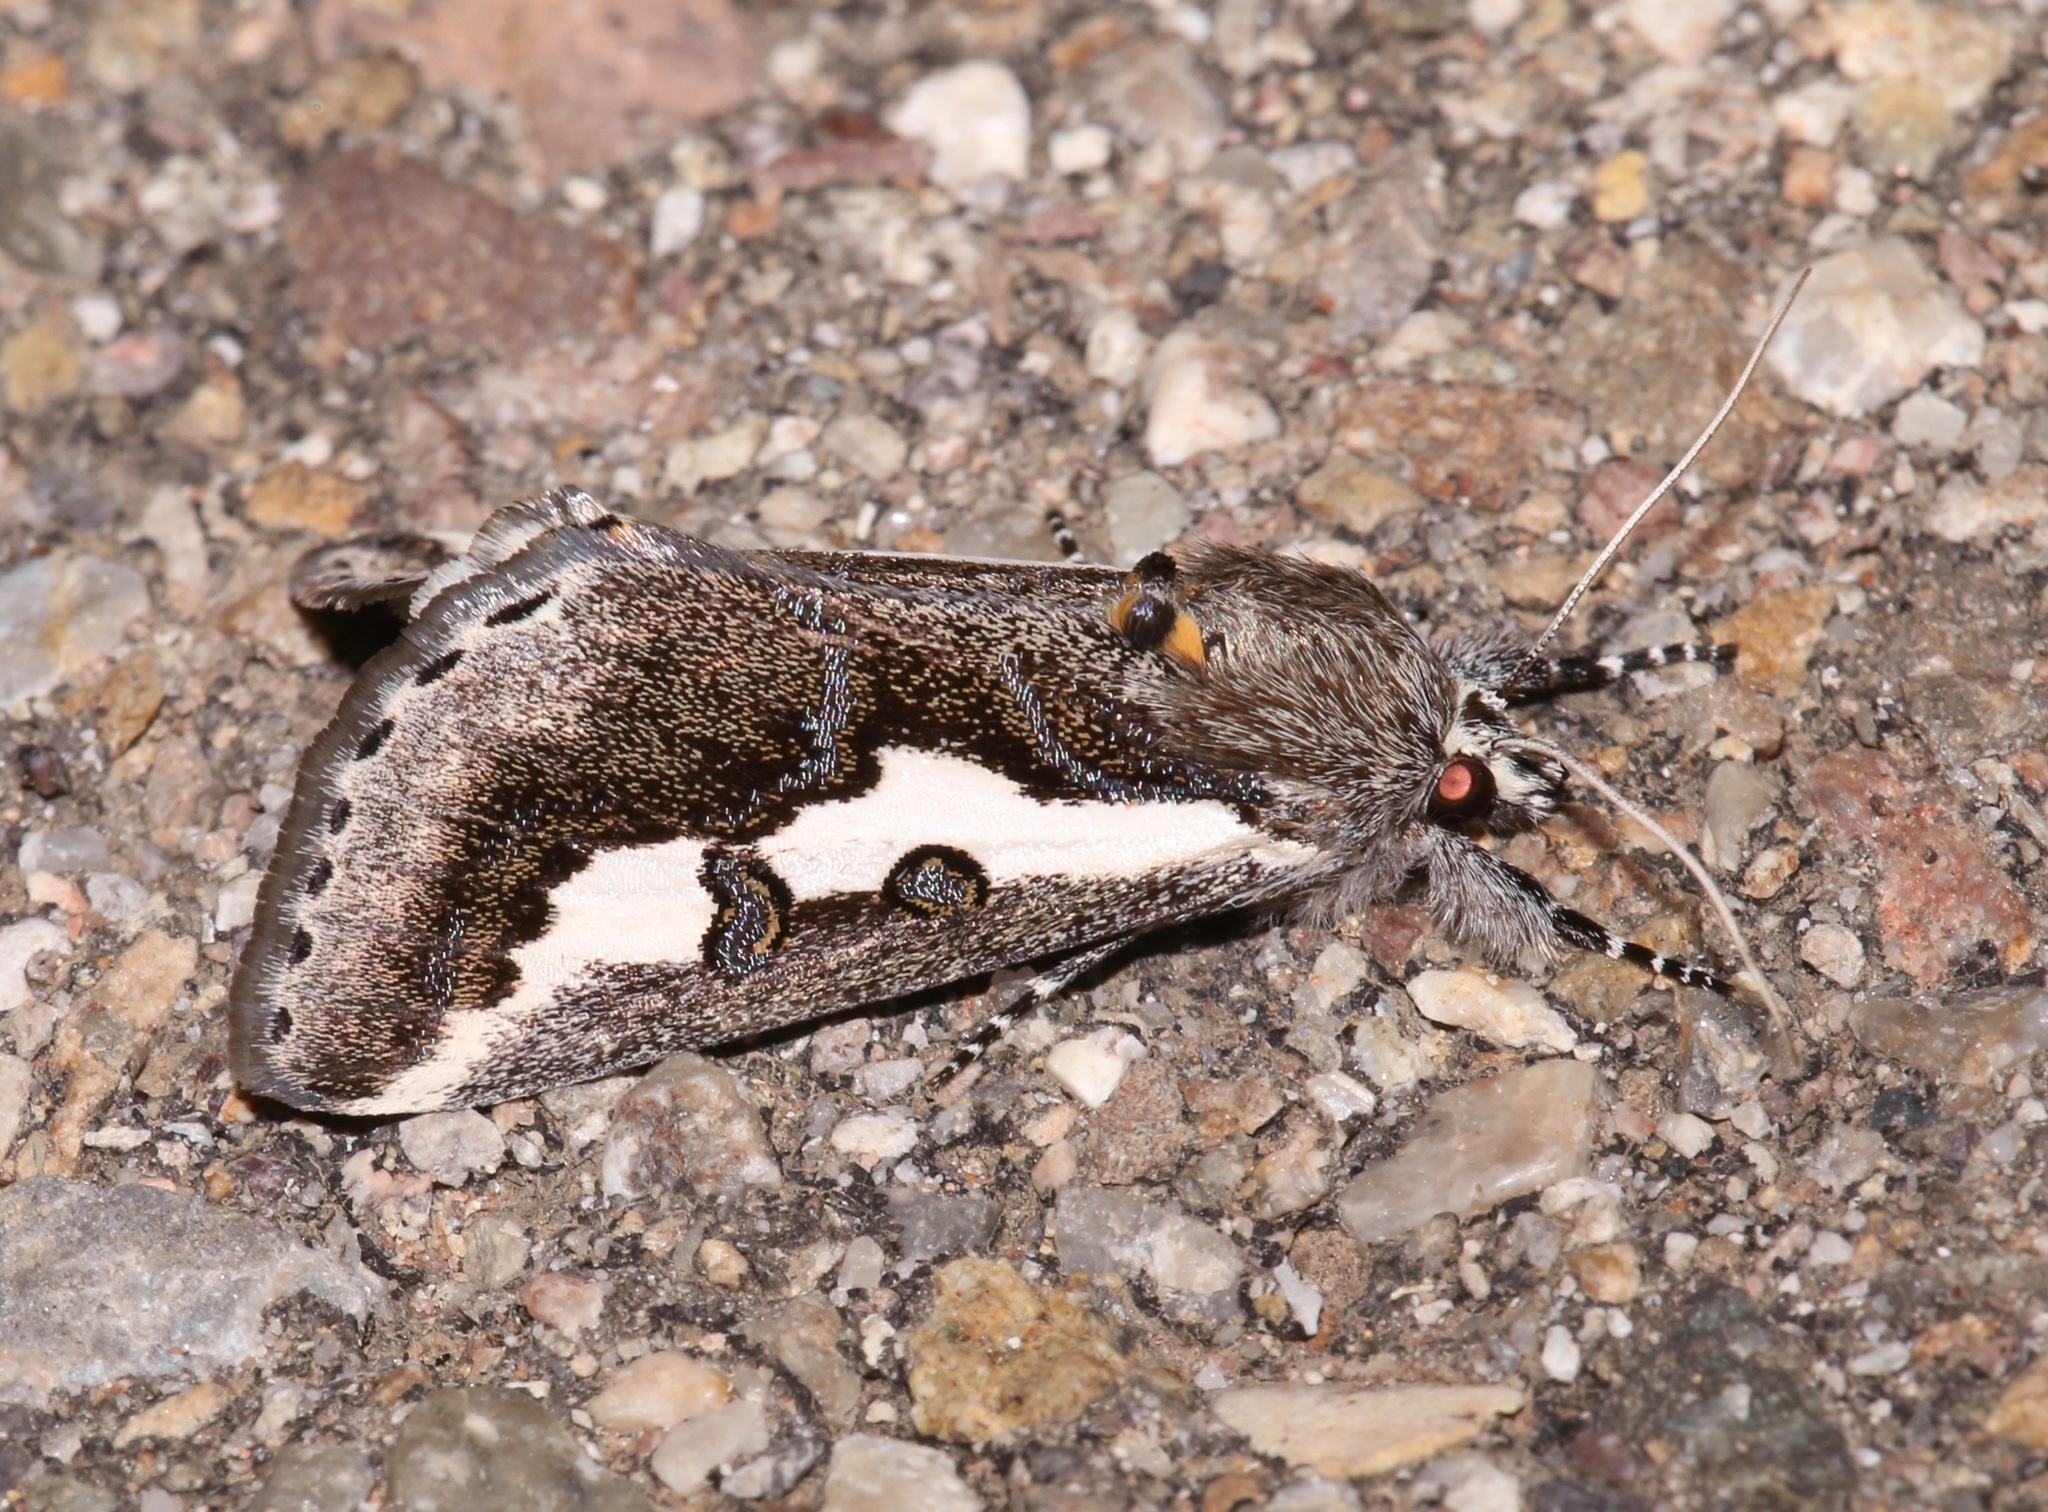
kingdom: Animalia
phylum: Arthropoda
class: Insecta
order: Lepidoptera
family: Noctuidae
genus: Euscirrhopterus
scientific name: Euscirrhopterus gloveri
